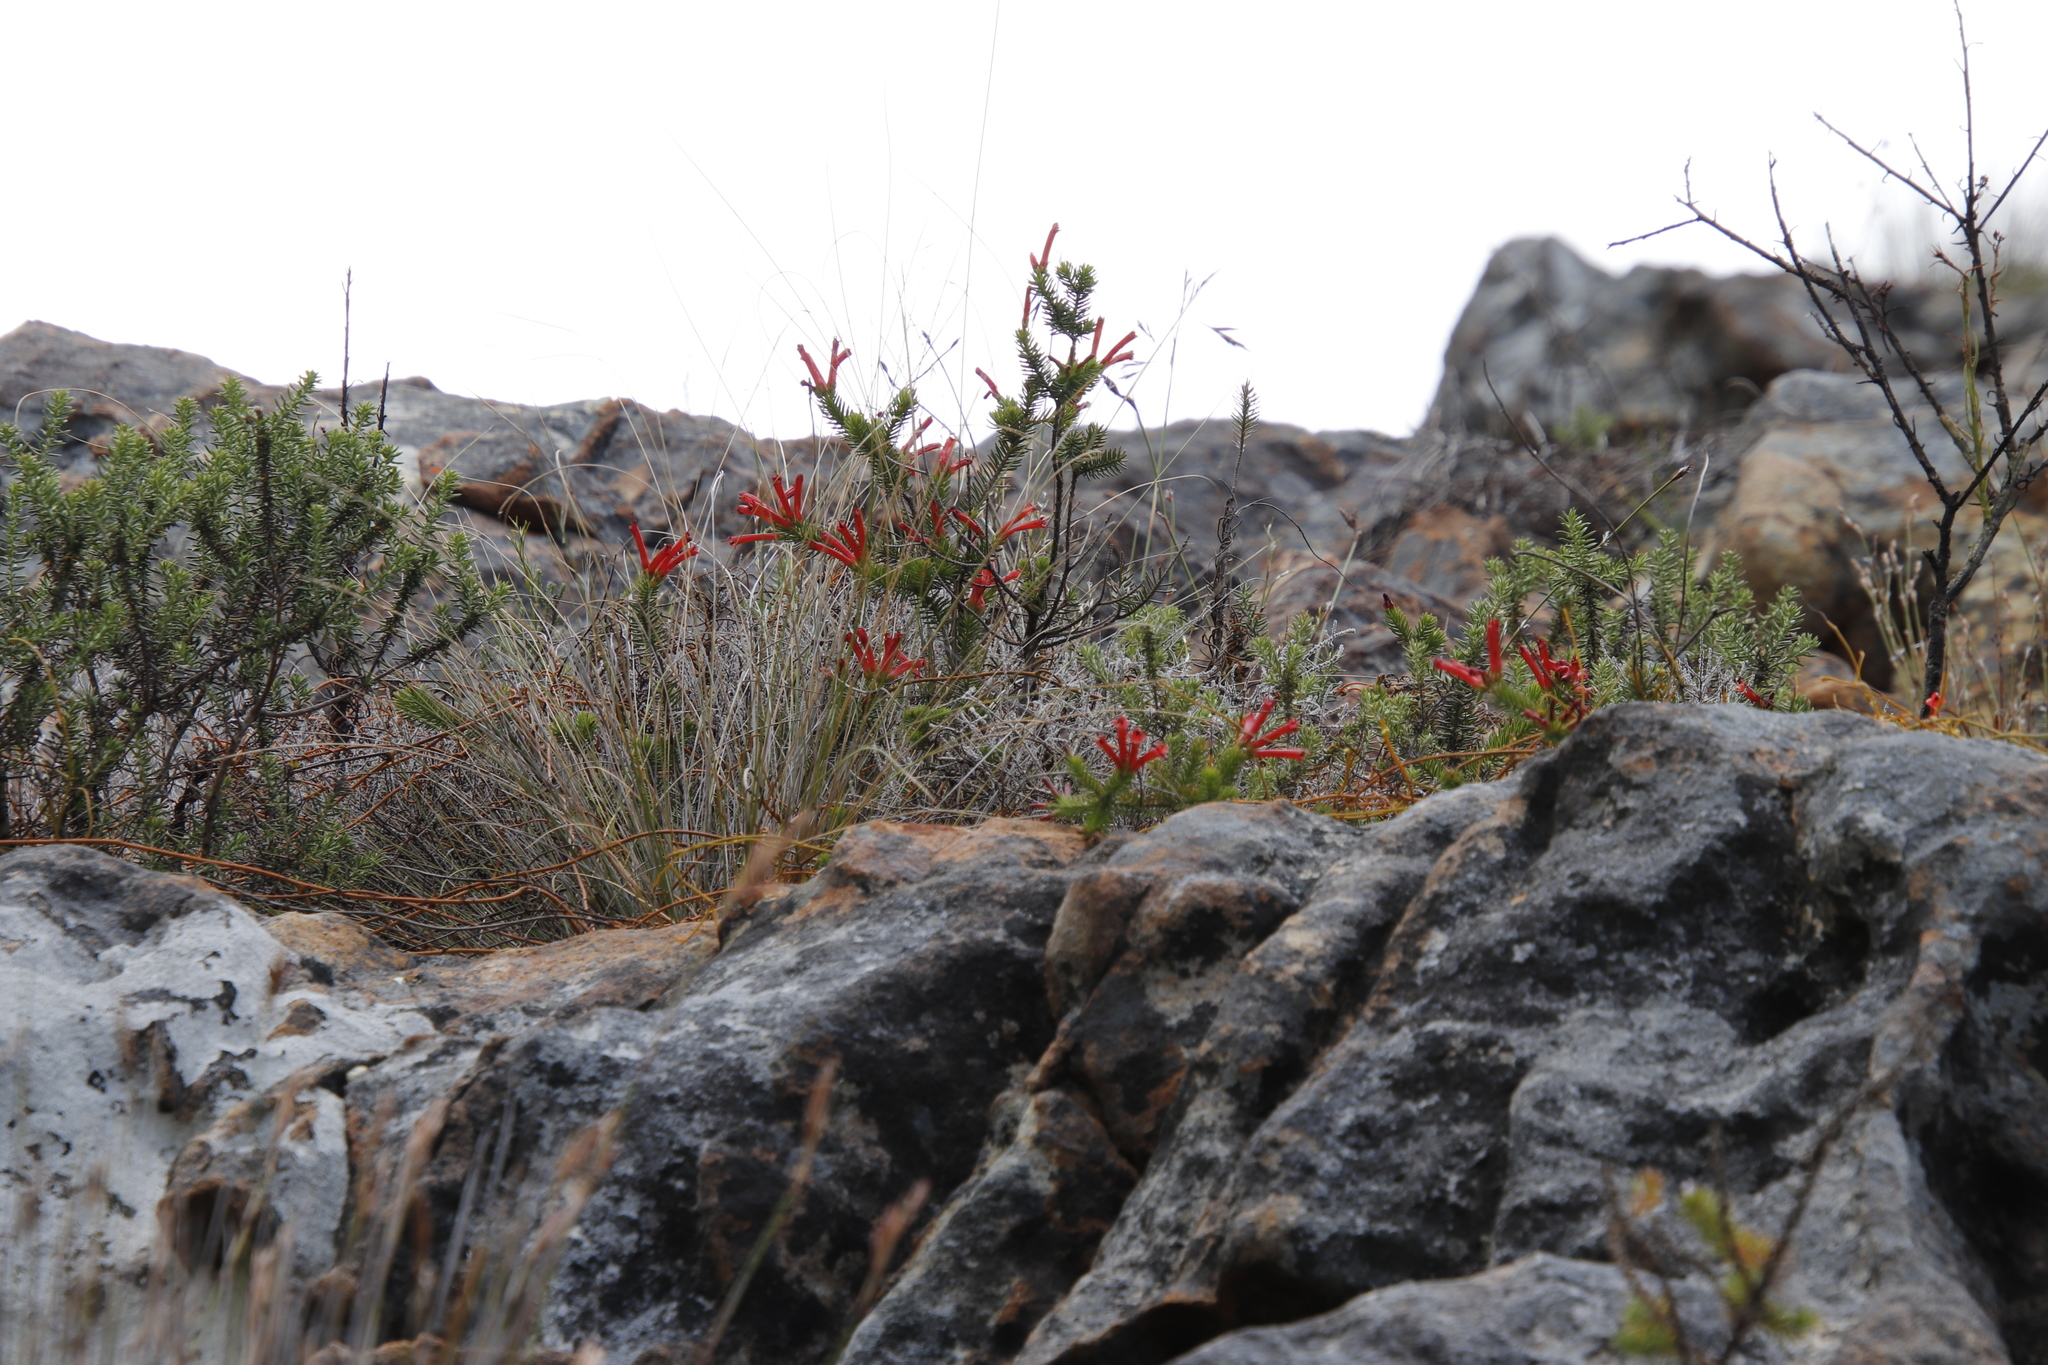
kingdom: Plantae
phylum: Tracheophyta
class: Magnoliopsida
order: Ericales
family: Ericaceae
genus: Erica
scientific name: Erica nevillei
